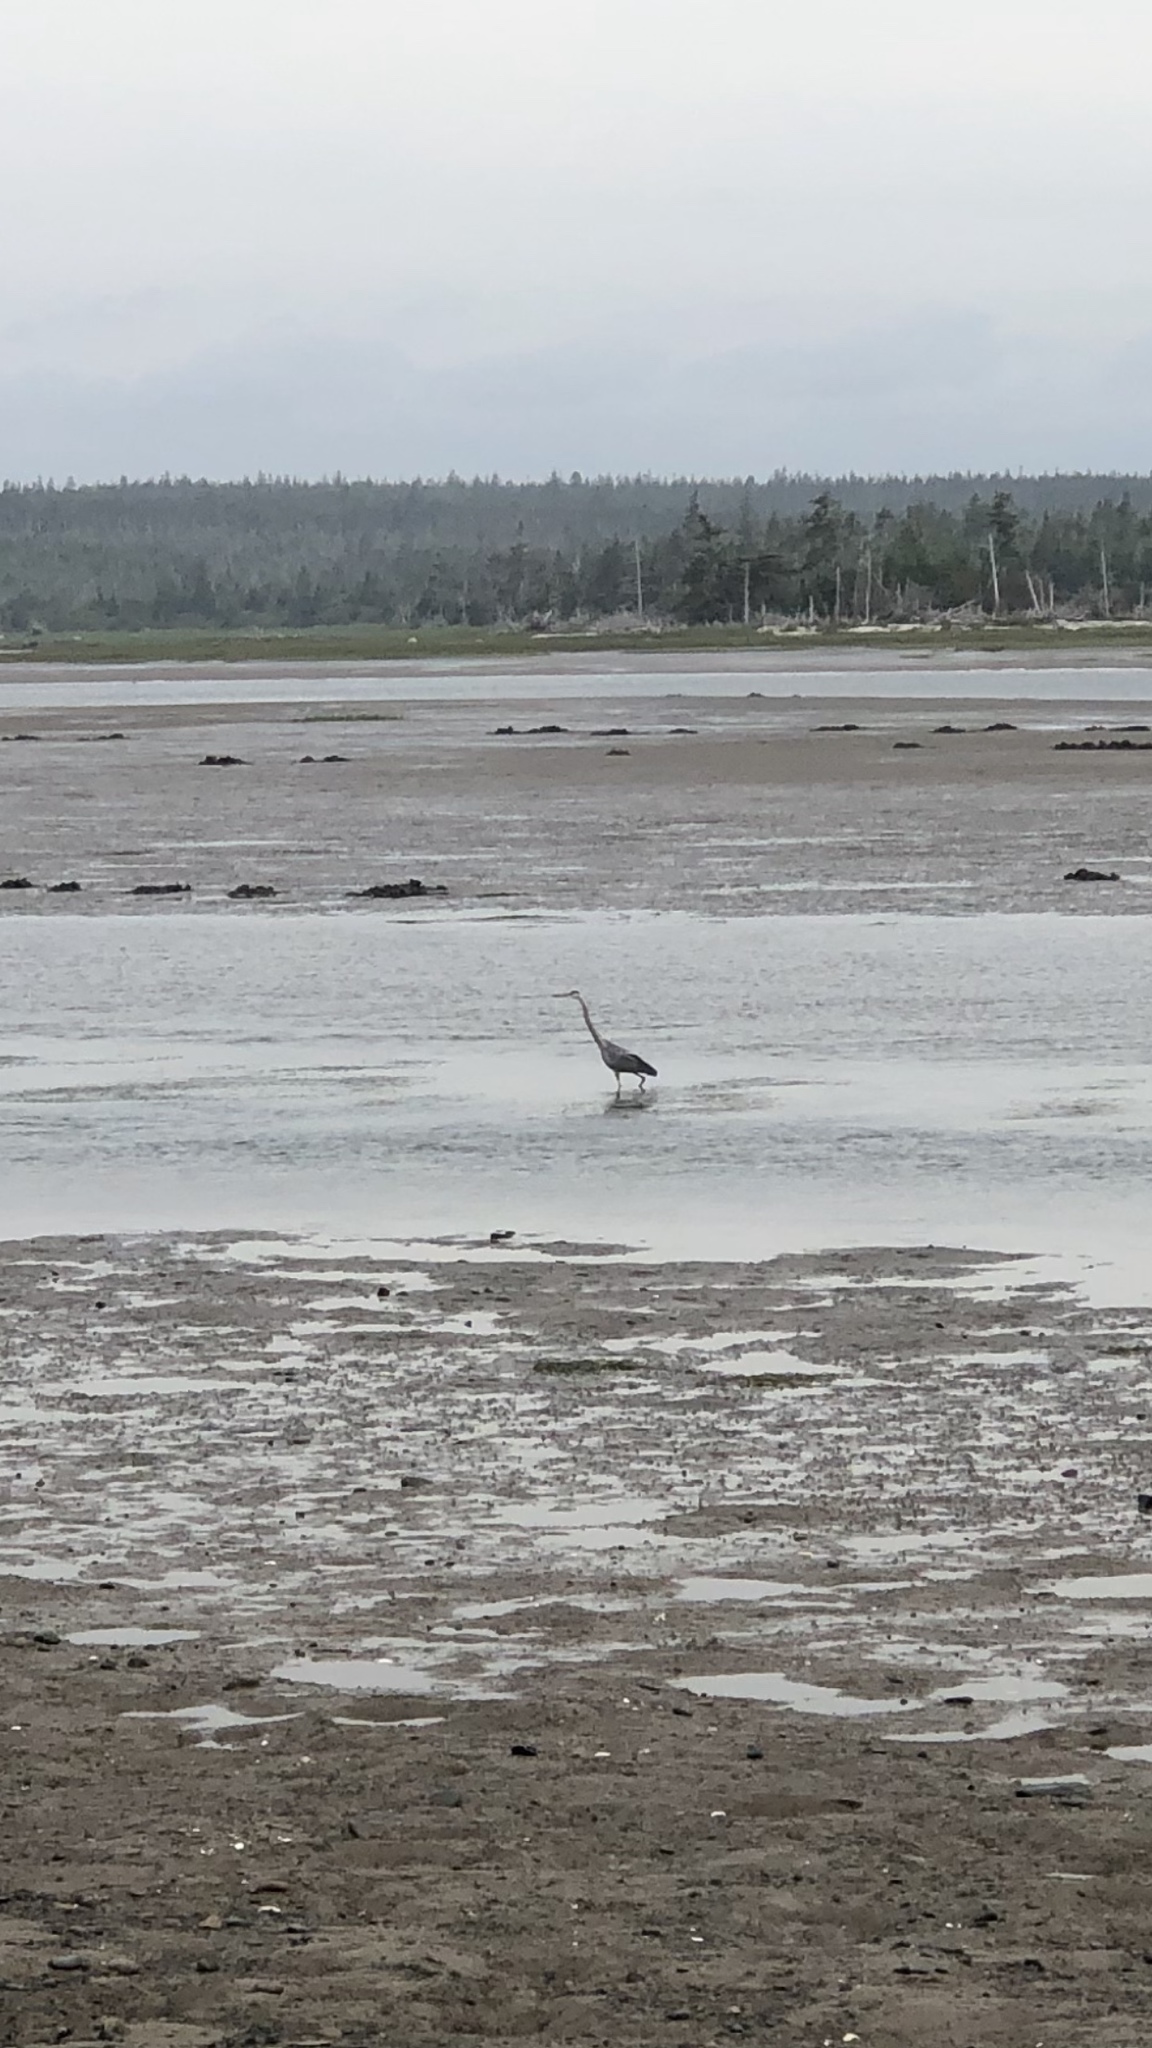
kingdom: Animalia
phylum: Chordata
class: Aves
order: Pelecaniformes
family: Ardeidae
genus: Ardea
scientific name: Ardea herodias
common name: Great blue heron
